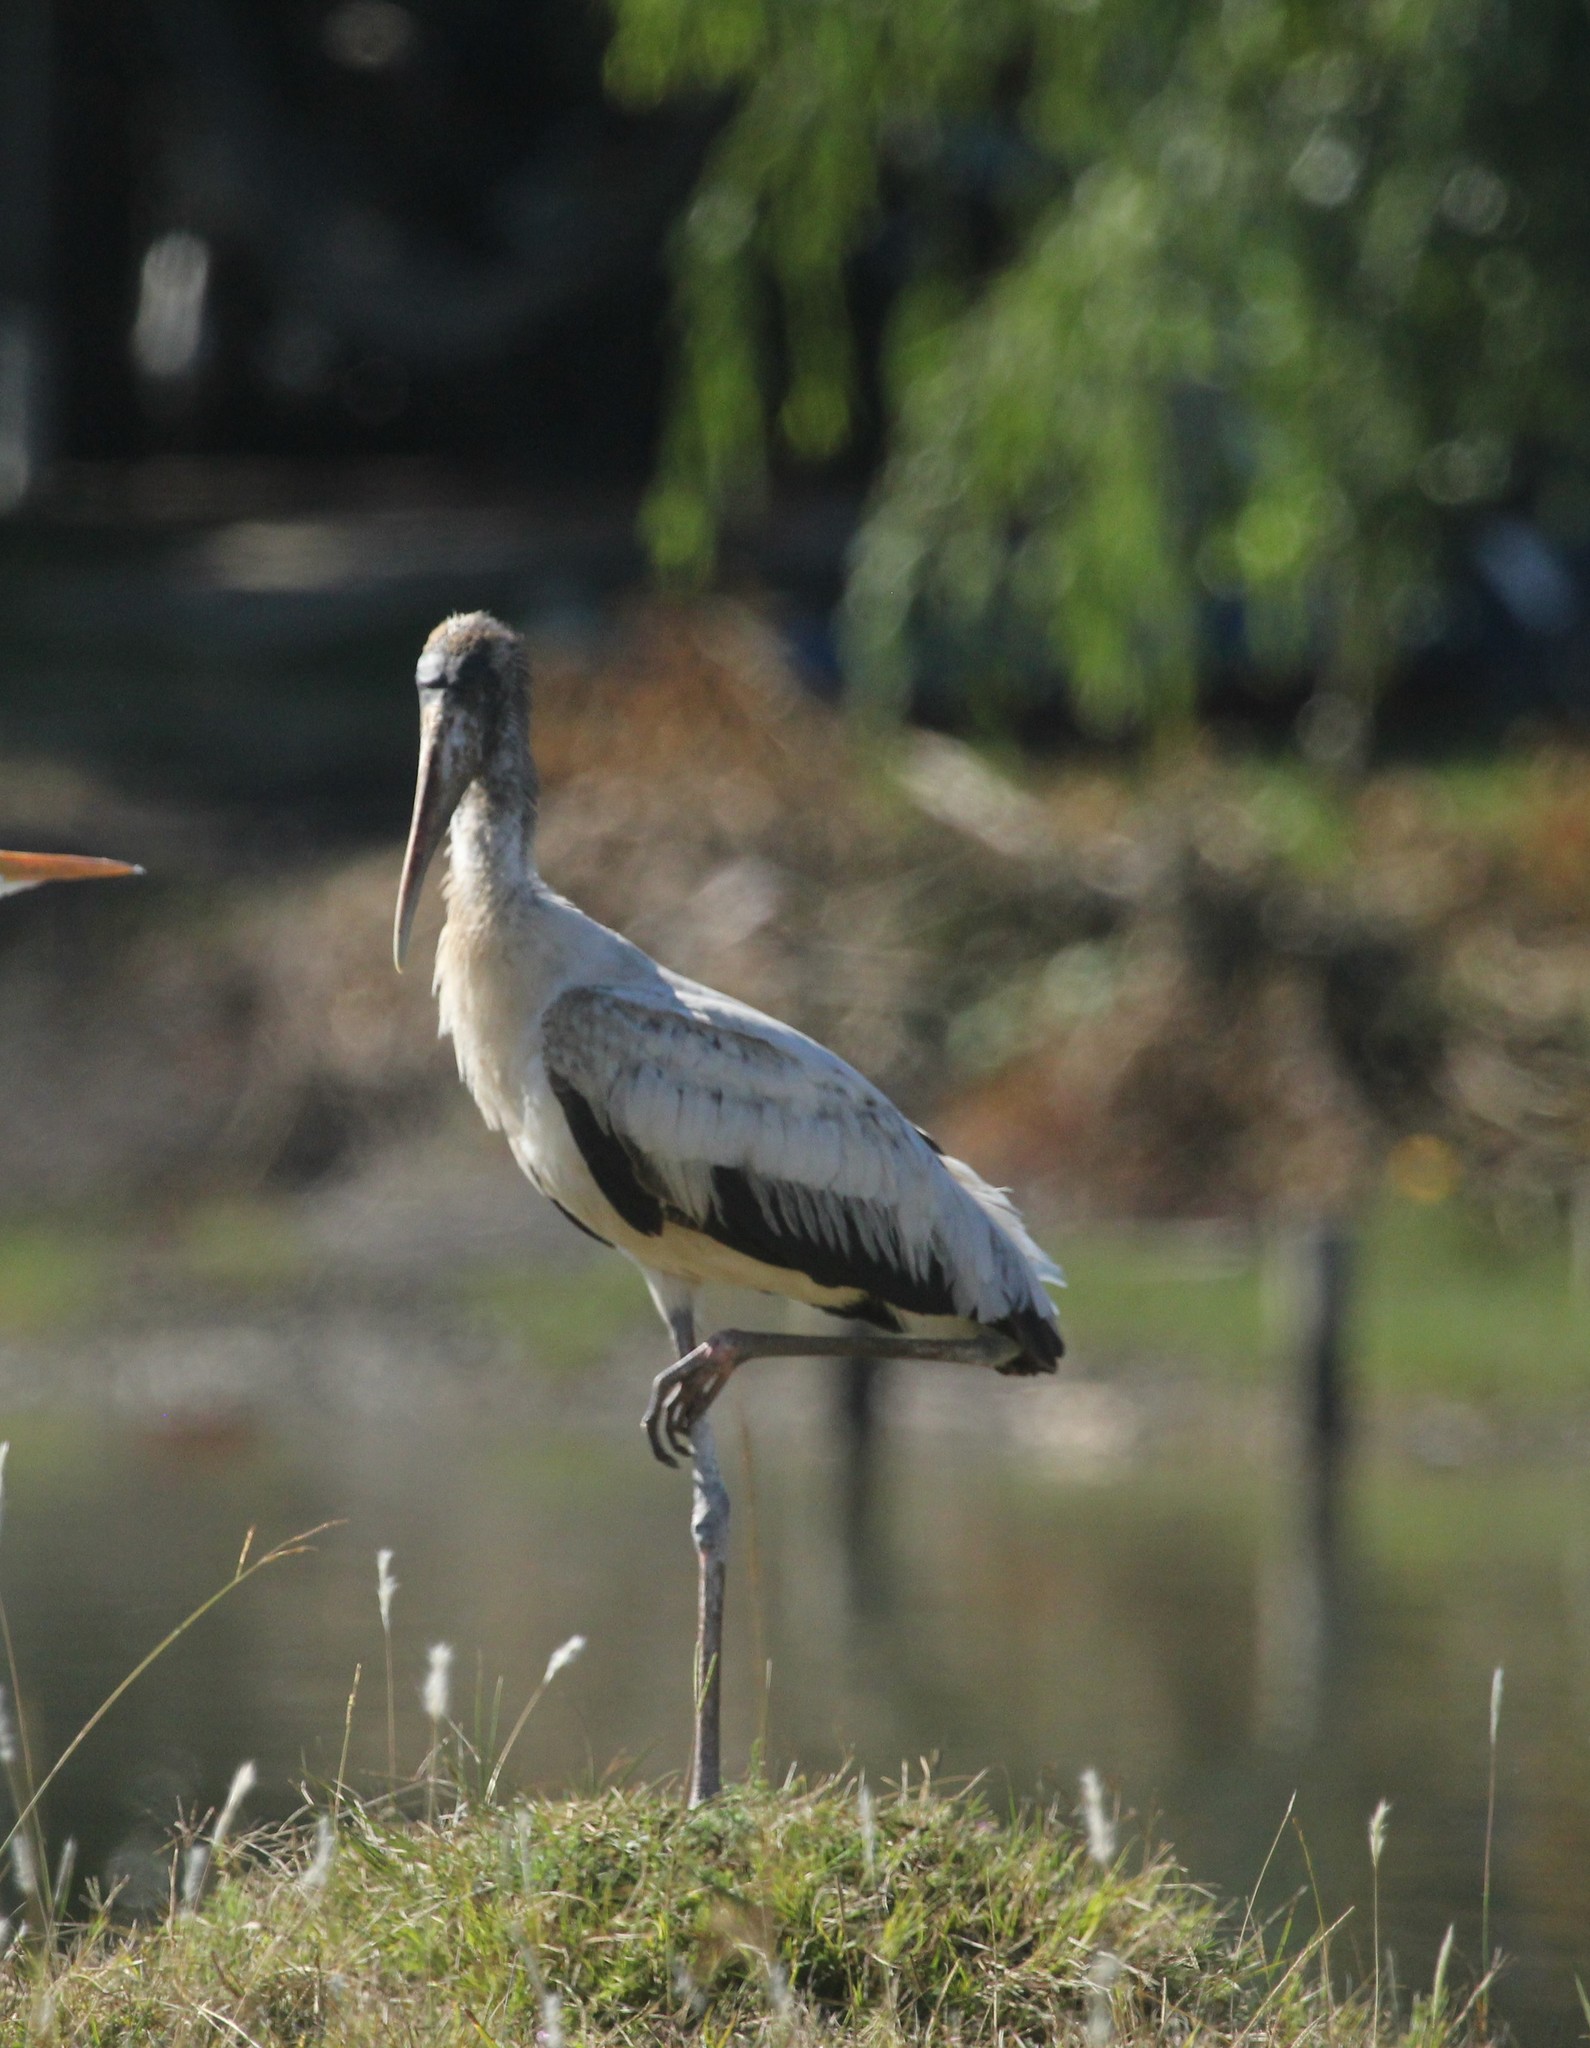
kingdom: Animalia
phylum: Chordata
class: Aves
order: Ciconiiformes
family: Ciconiidae
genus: Mycteria
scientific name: Mycteria americana
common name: Wood stork
